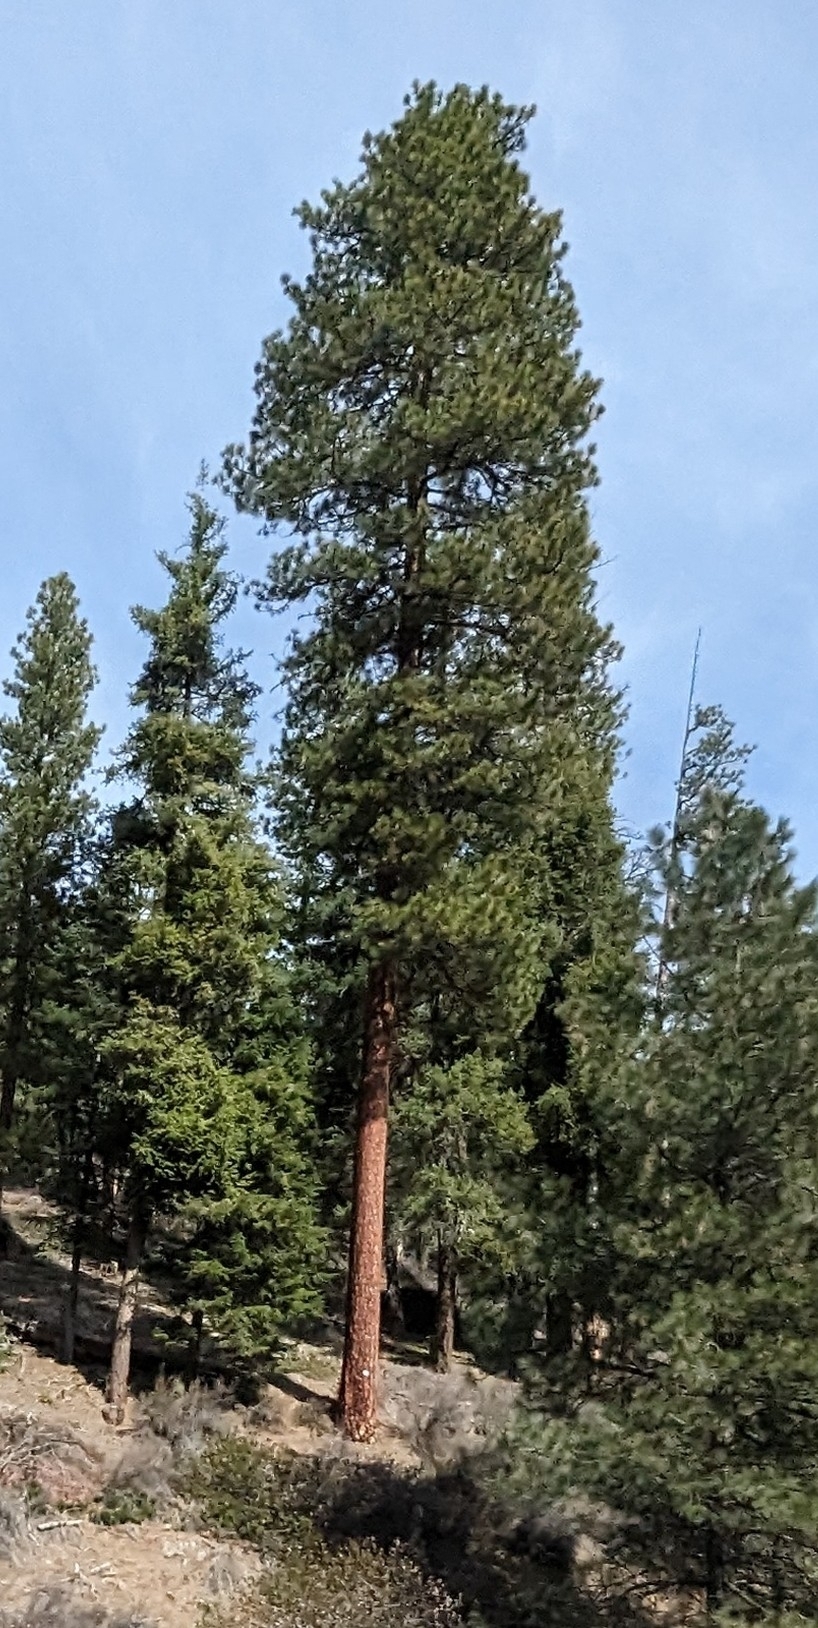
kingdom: Plantae
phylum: Tracheophyta
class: Pinopsida
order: Pinales
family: Pinaceae
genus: Pinus
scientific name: Pinus ponderosa
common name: Western yellow-pine
